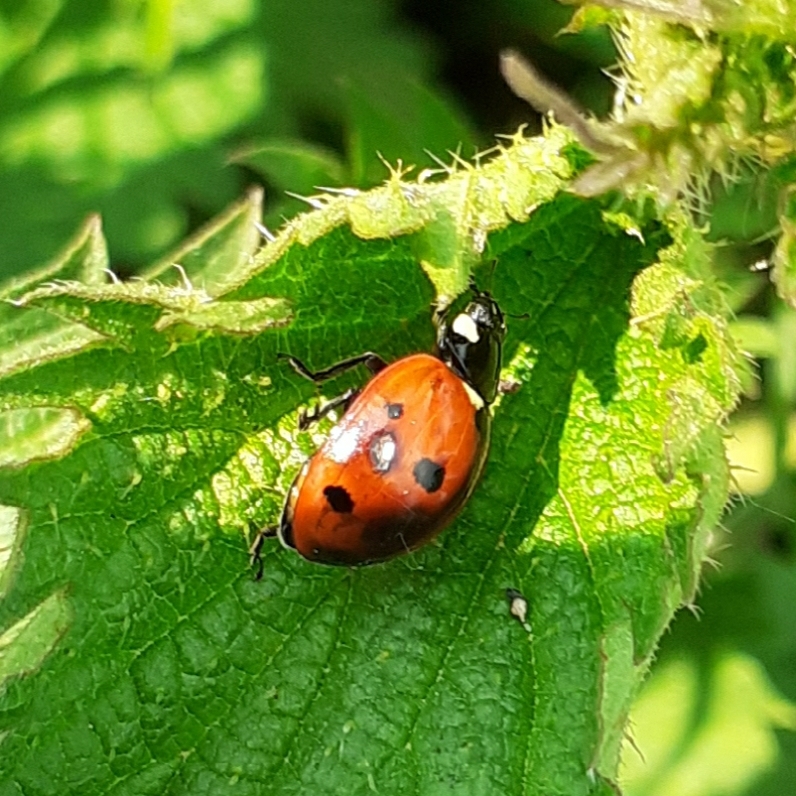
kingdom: Animalia
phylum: Arthropoda
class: Insecta
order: Coleoptera
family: Coccinellidae
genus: Coccinella
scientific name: Coccinella septempunctata
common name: Sevenspotted lady beetle
